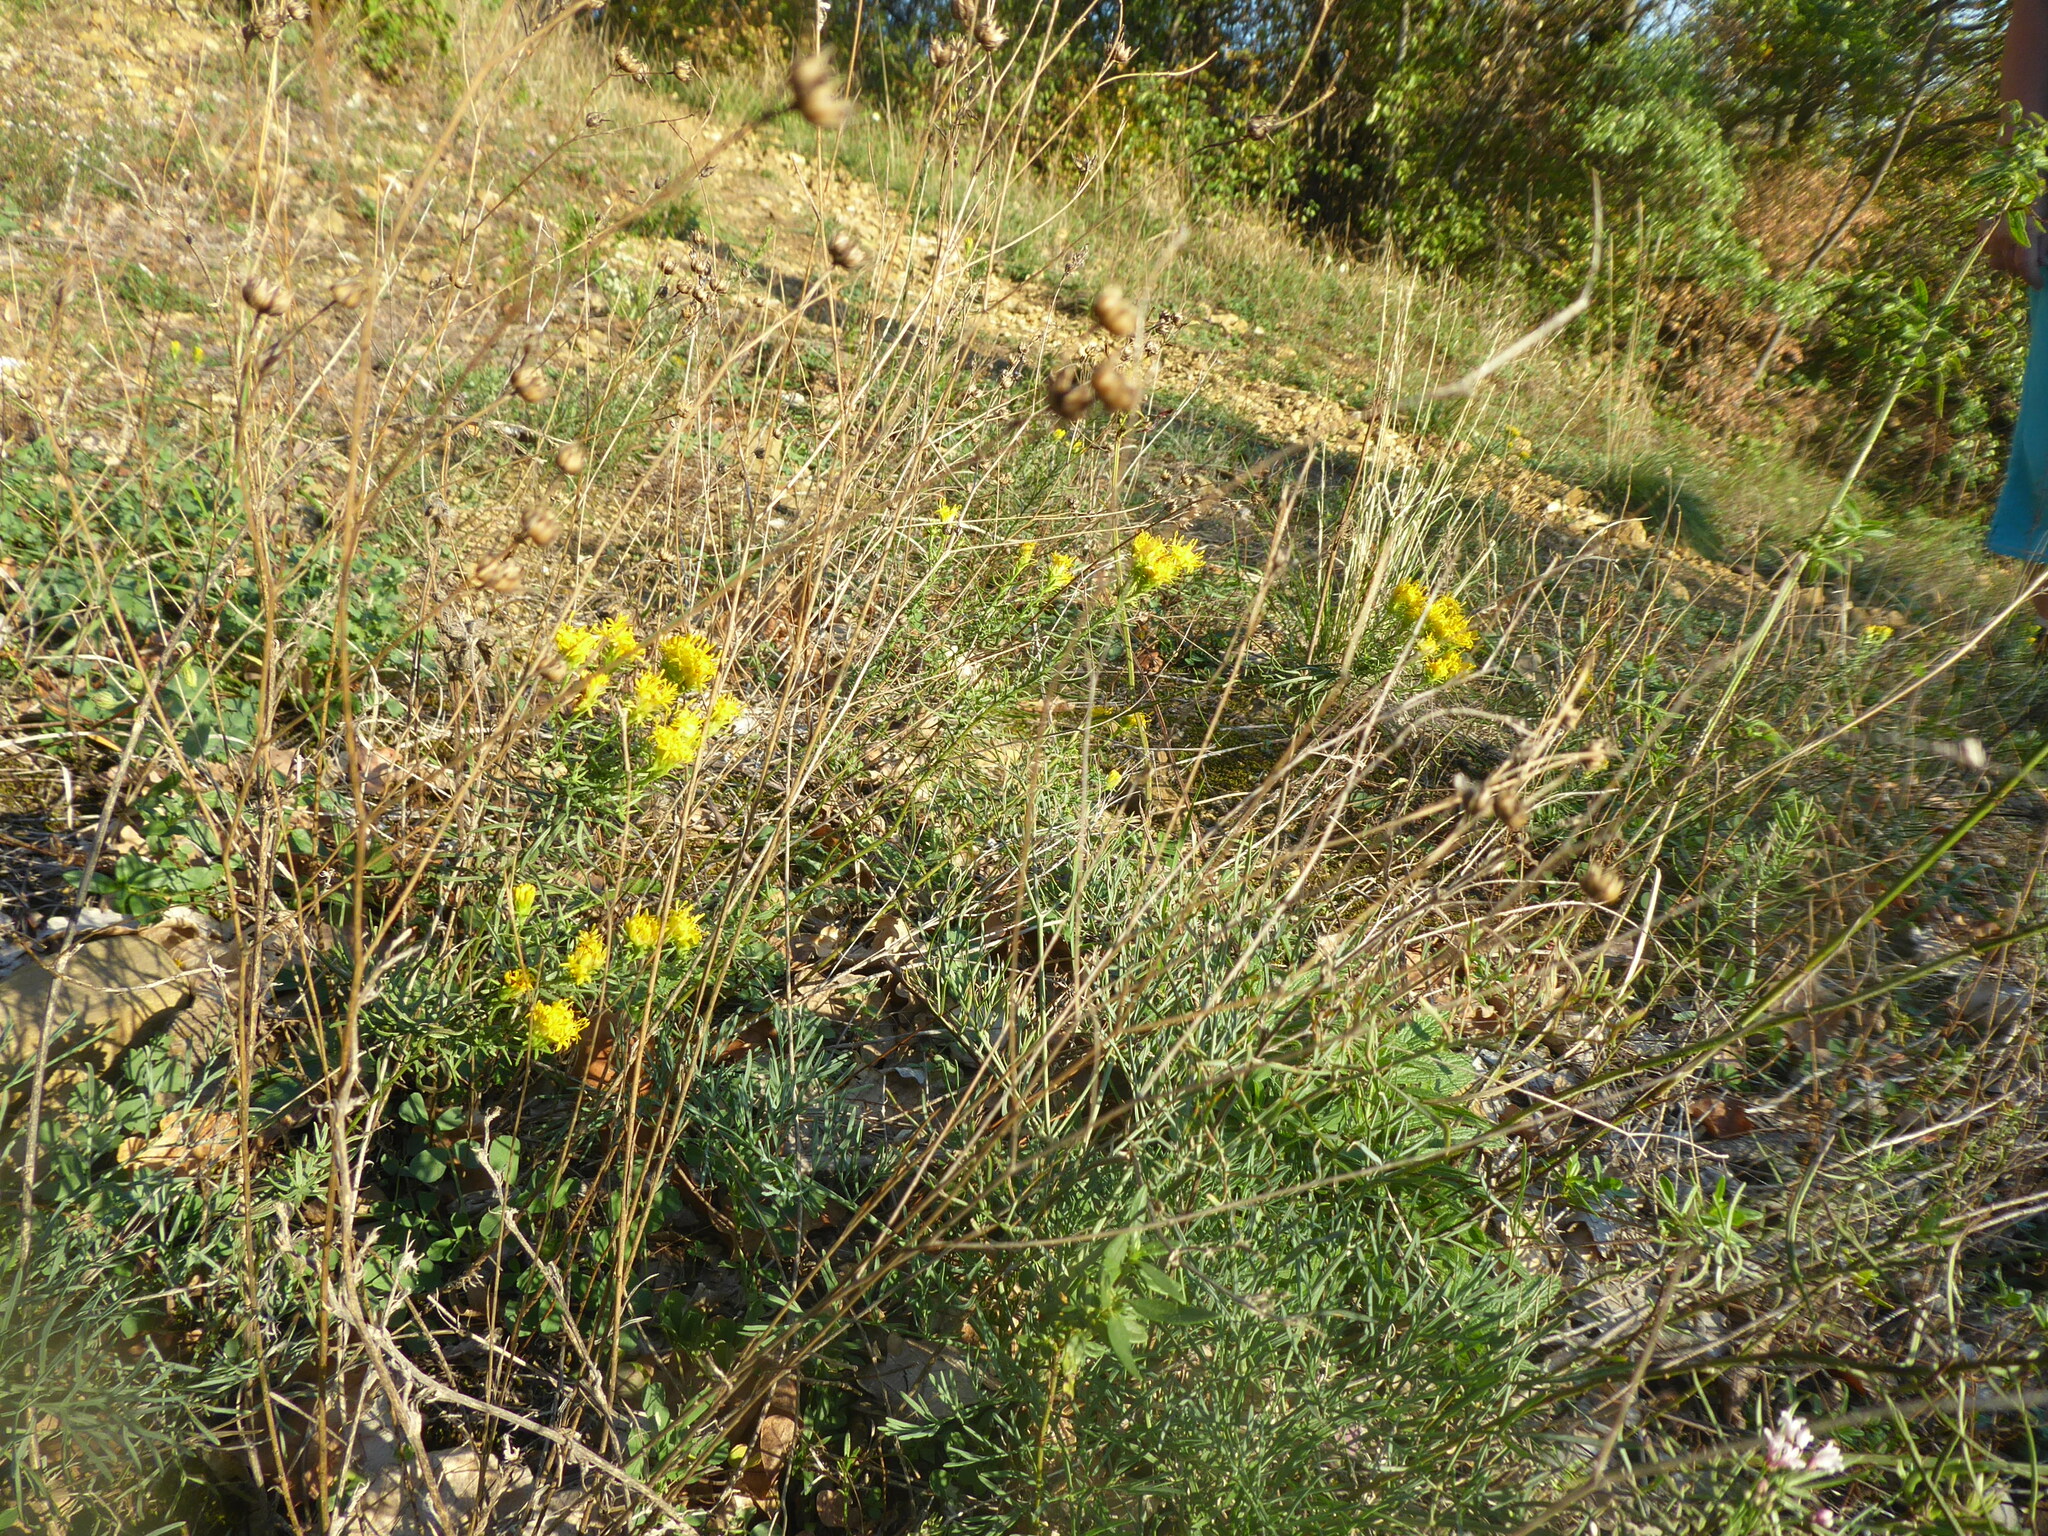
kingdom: Plantae
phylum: Tracheophyta
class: Magnoliopsida
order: Asterales
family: Asteraceae
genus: Galatella
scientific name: Galatella linosyris
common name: Goldilocks aster
